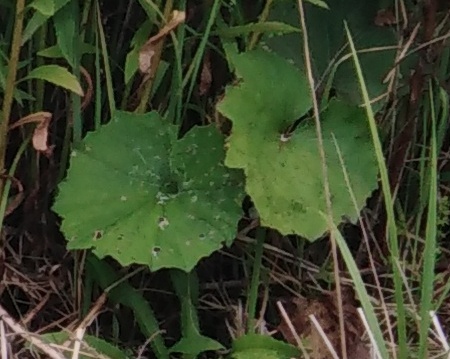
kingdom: Plantae
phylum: Tracheophyta
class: Magnoliopsida
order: Asterales
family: Asteraceae
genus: Tussilago
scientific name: Tussilago farfara
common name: Coltsfoot
